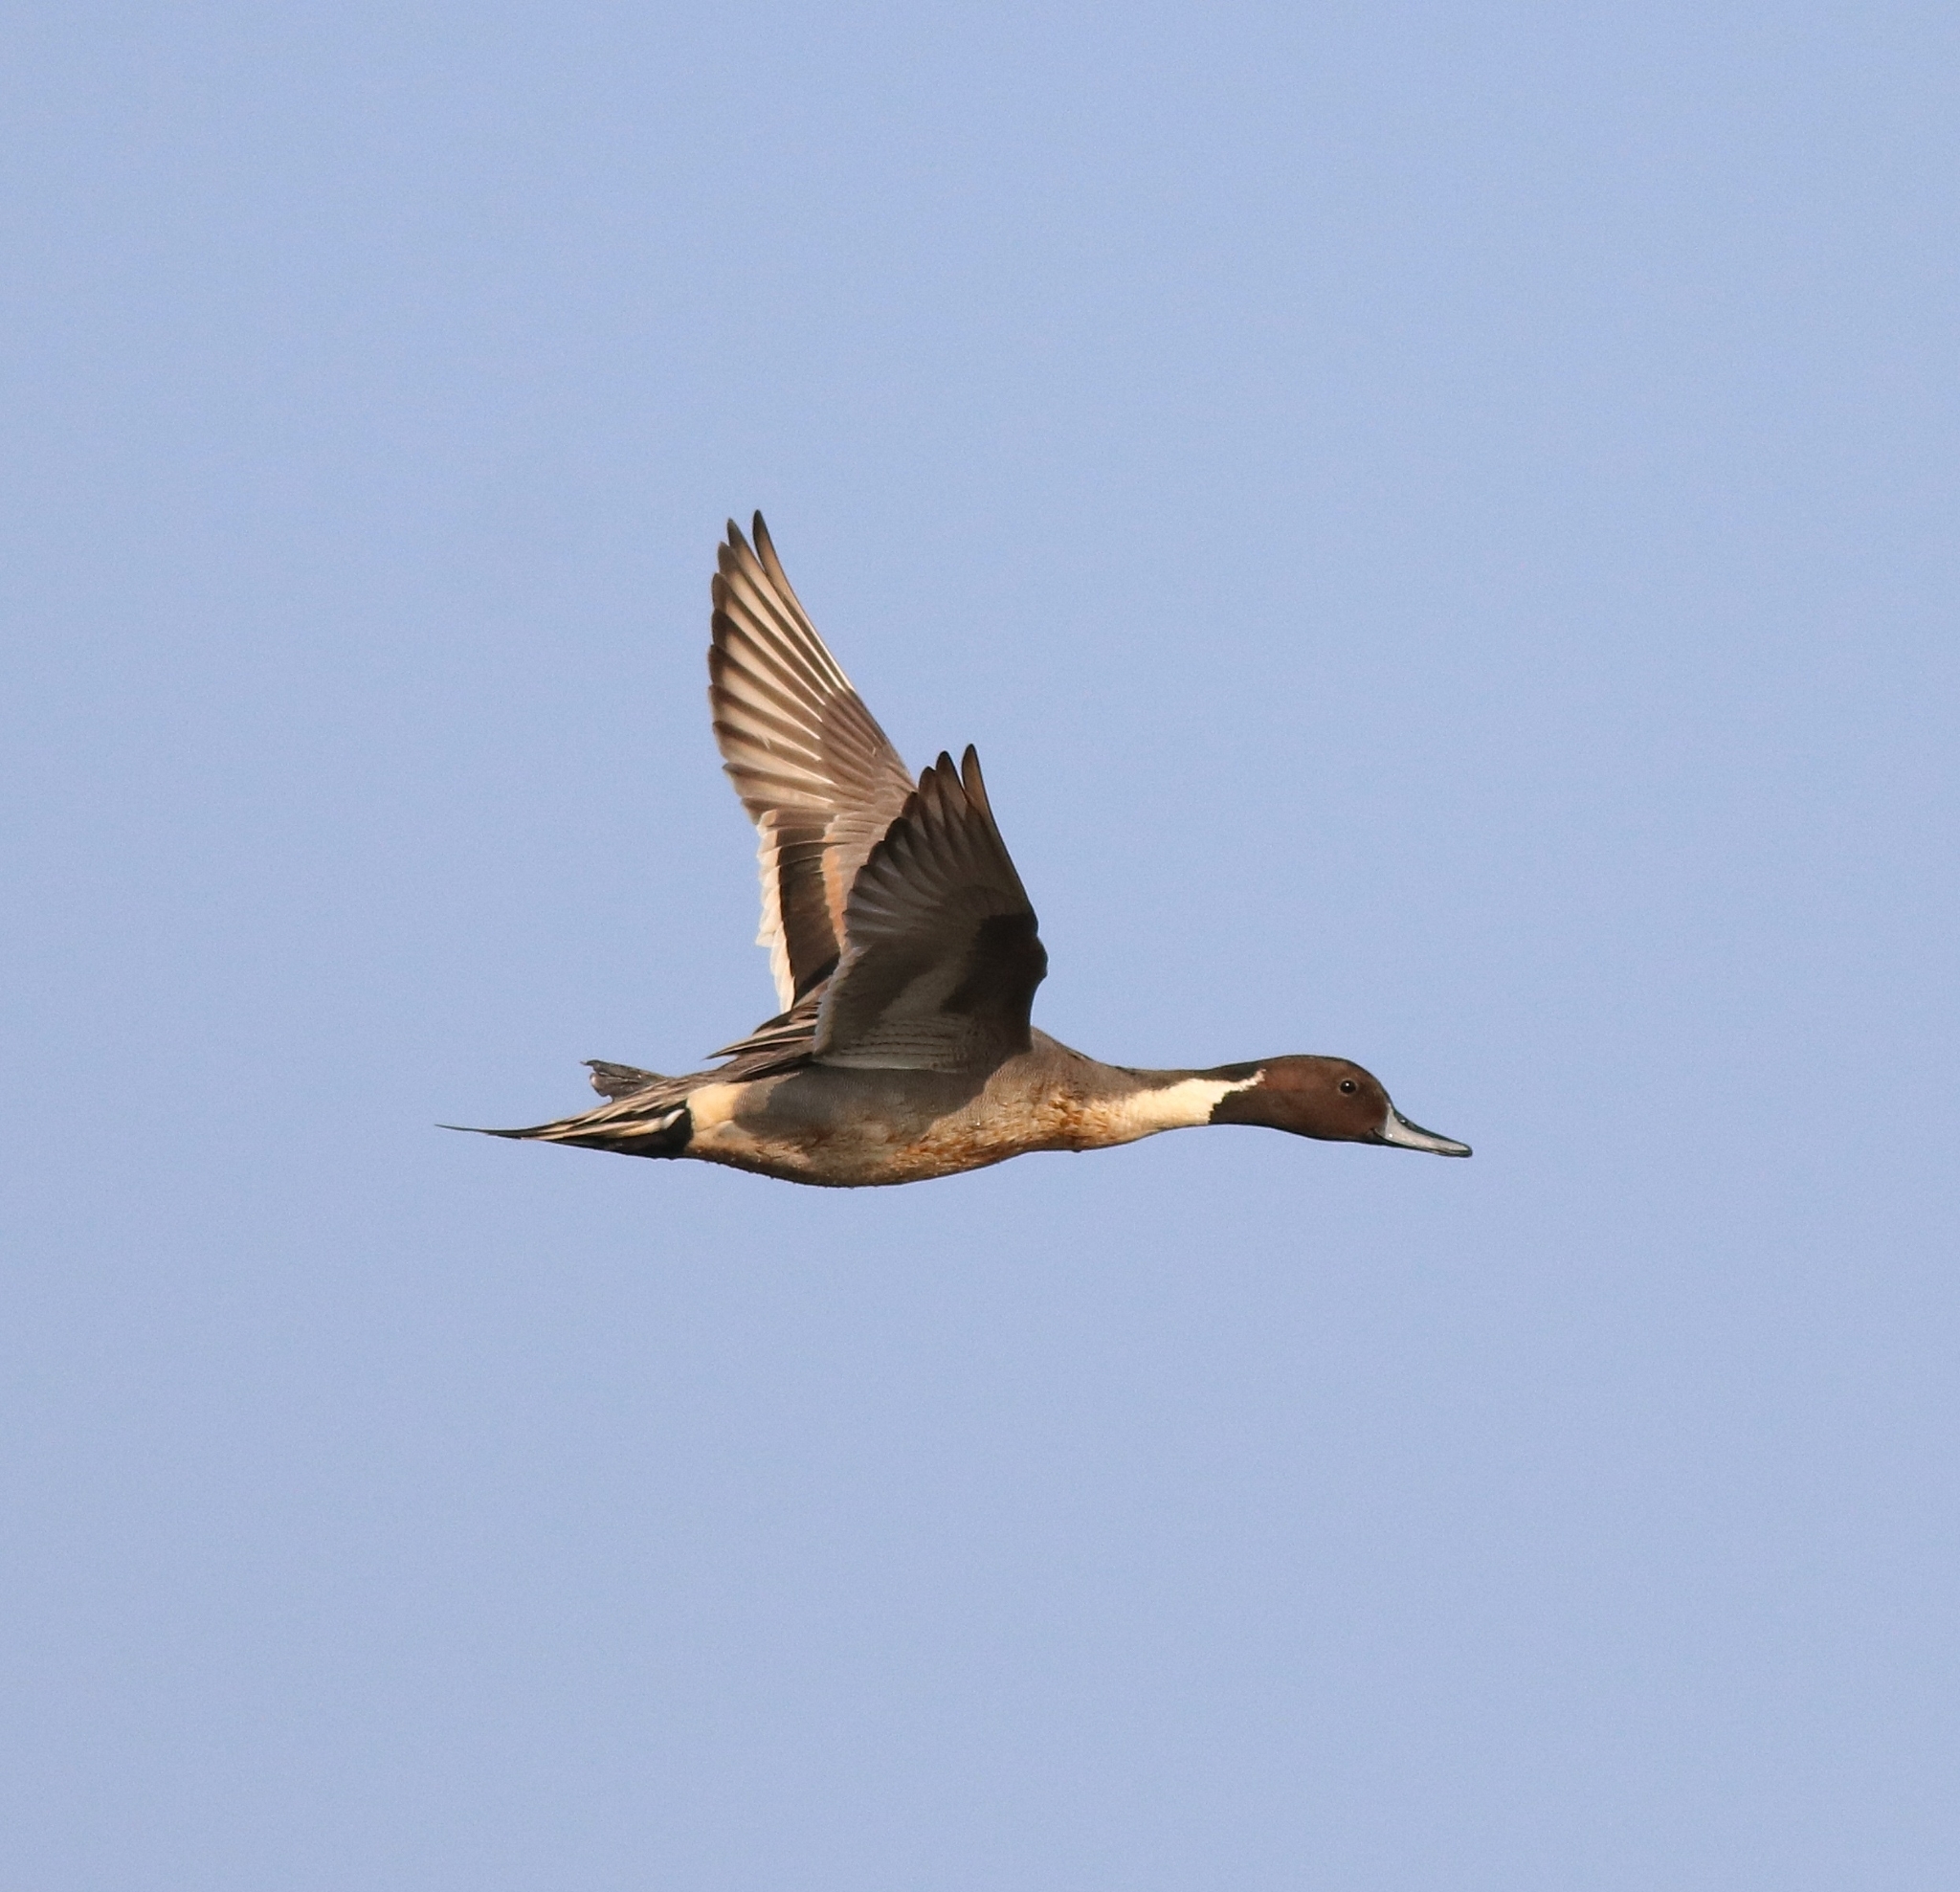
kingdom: Animalia
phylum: Chordata
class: Aves
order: Anseriformes
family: Anatidae
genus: Anas
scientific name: Anas acuta
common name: Northern pintail
